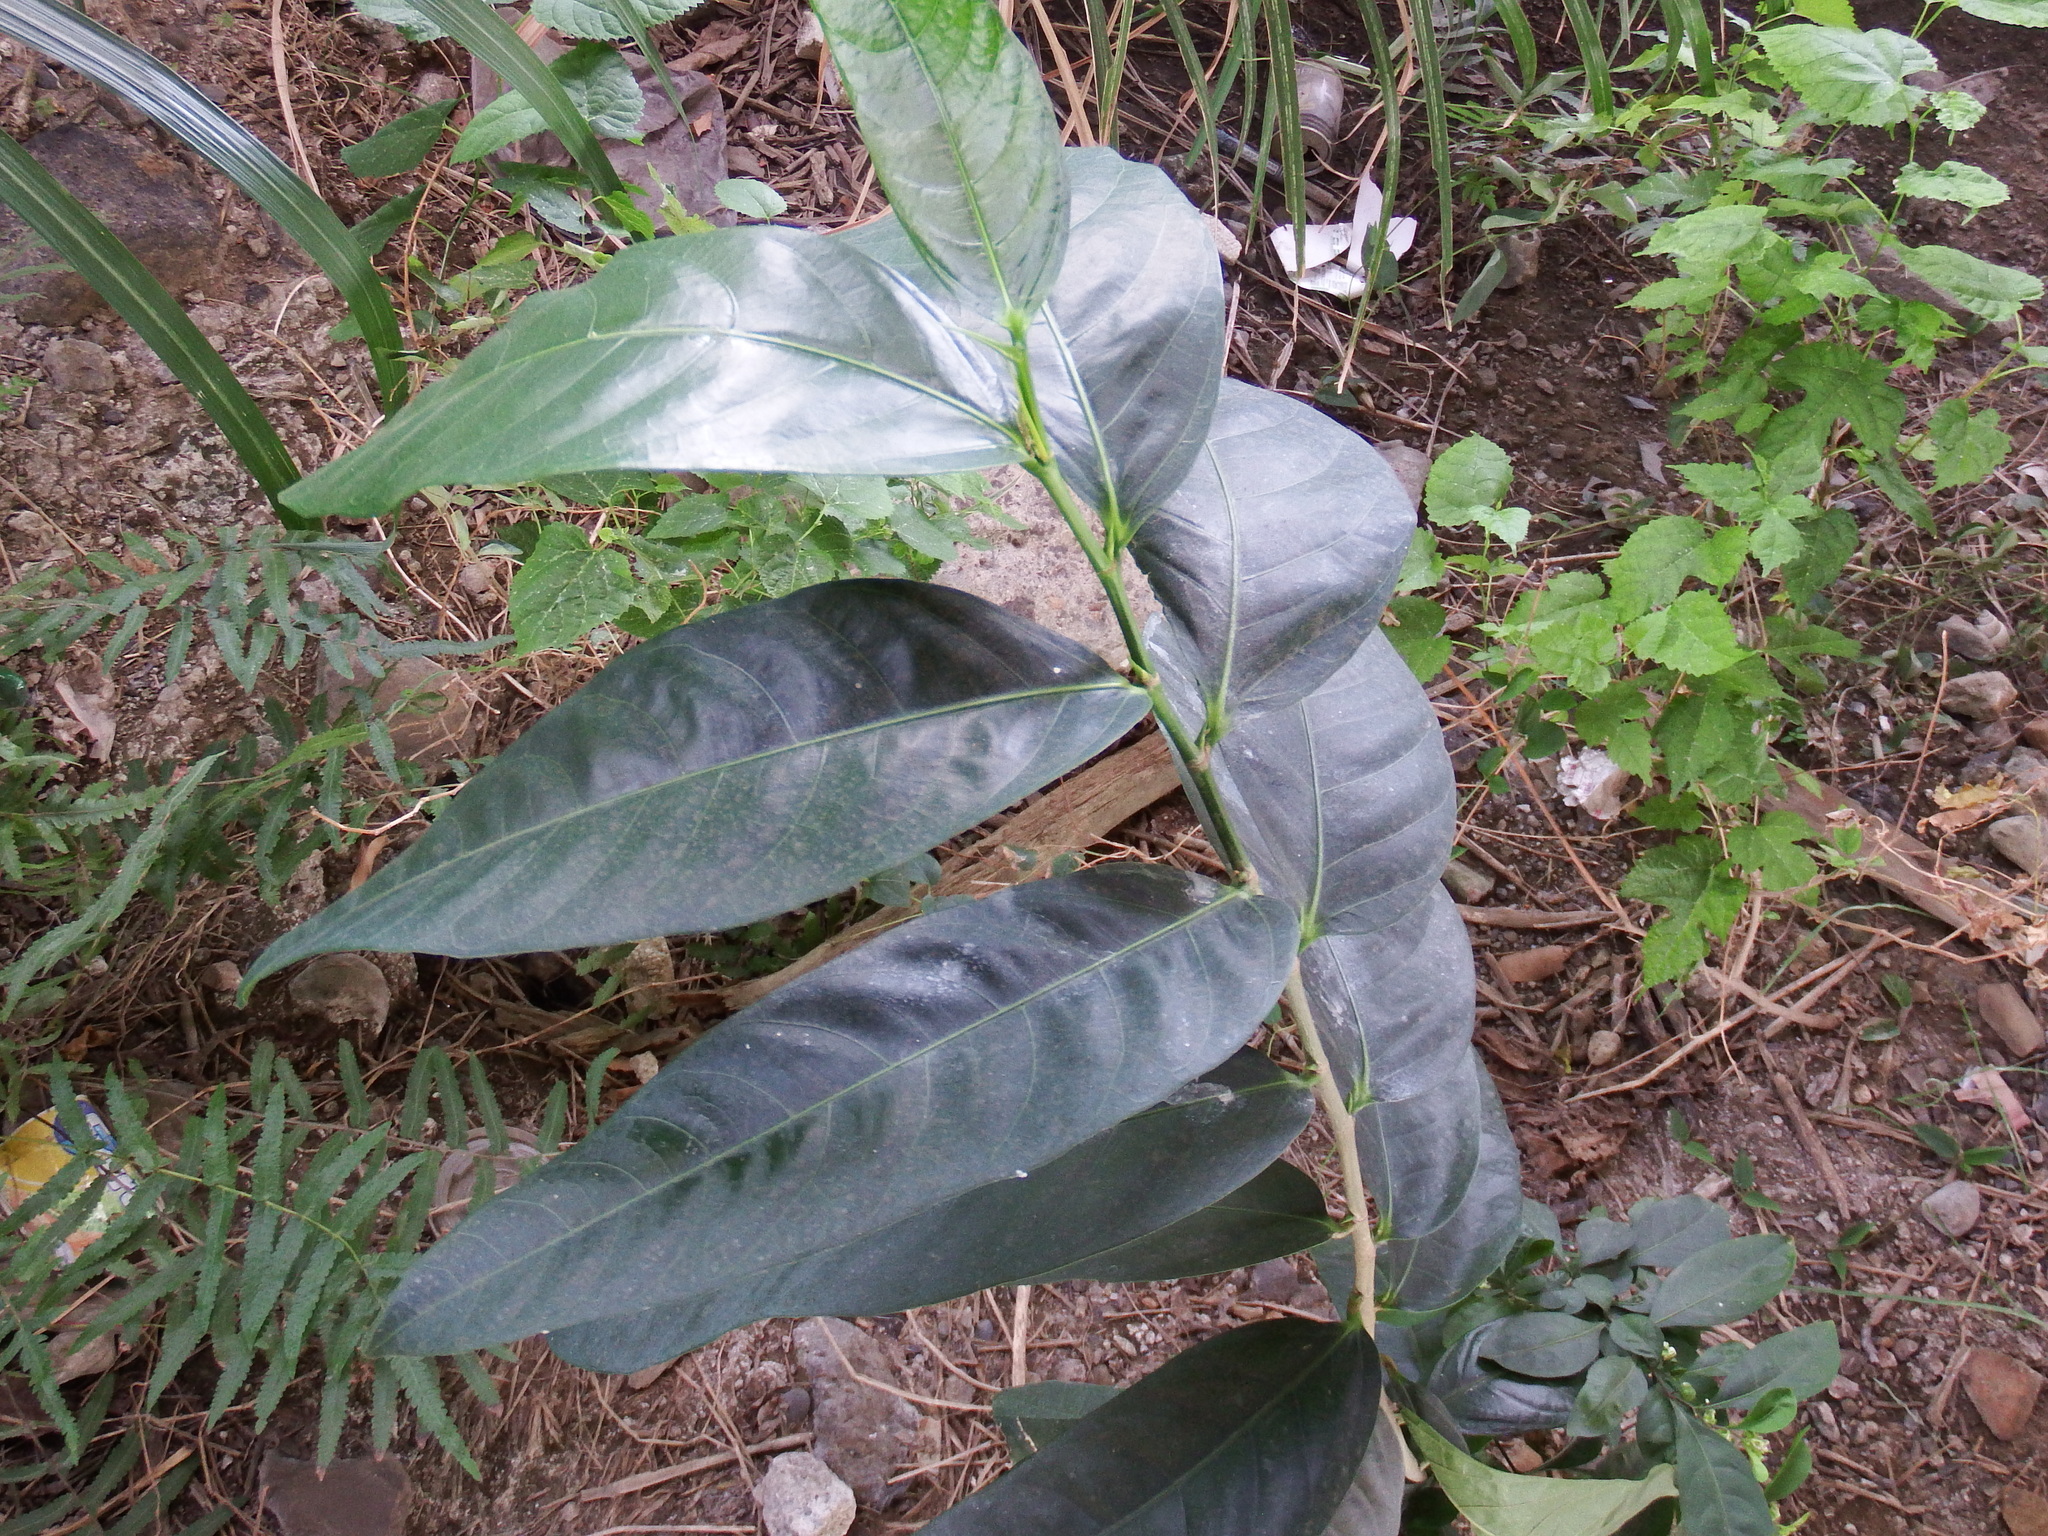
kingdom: Plantae
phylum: Tracheophyta
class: Magnoliopsida
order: Rosales
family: Moraceae
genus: Ficus
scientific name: Ficus virgata
